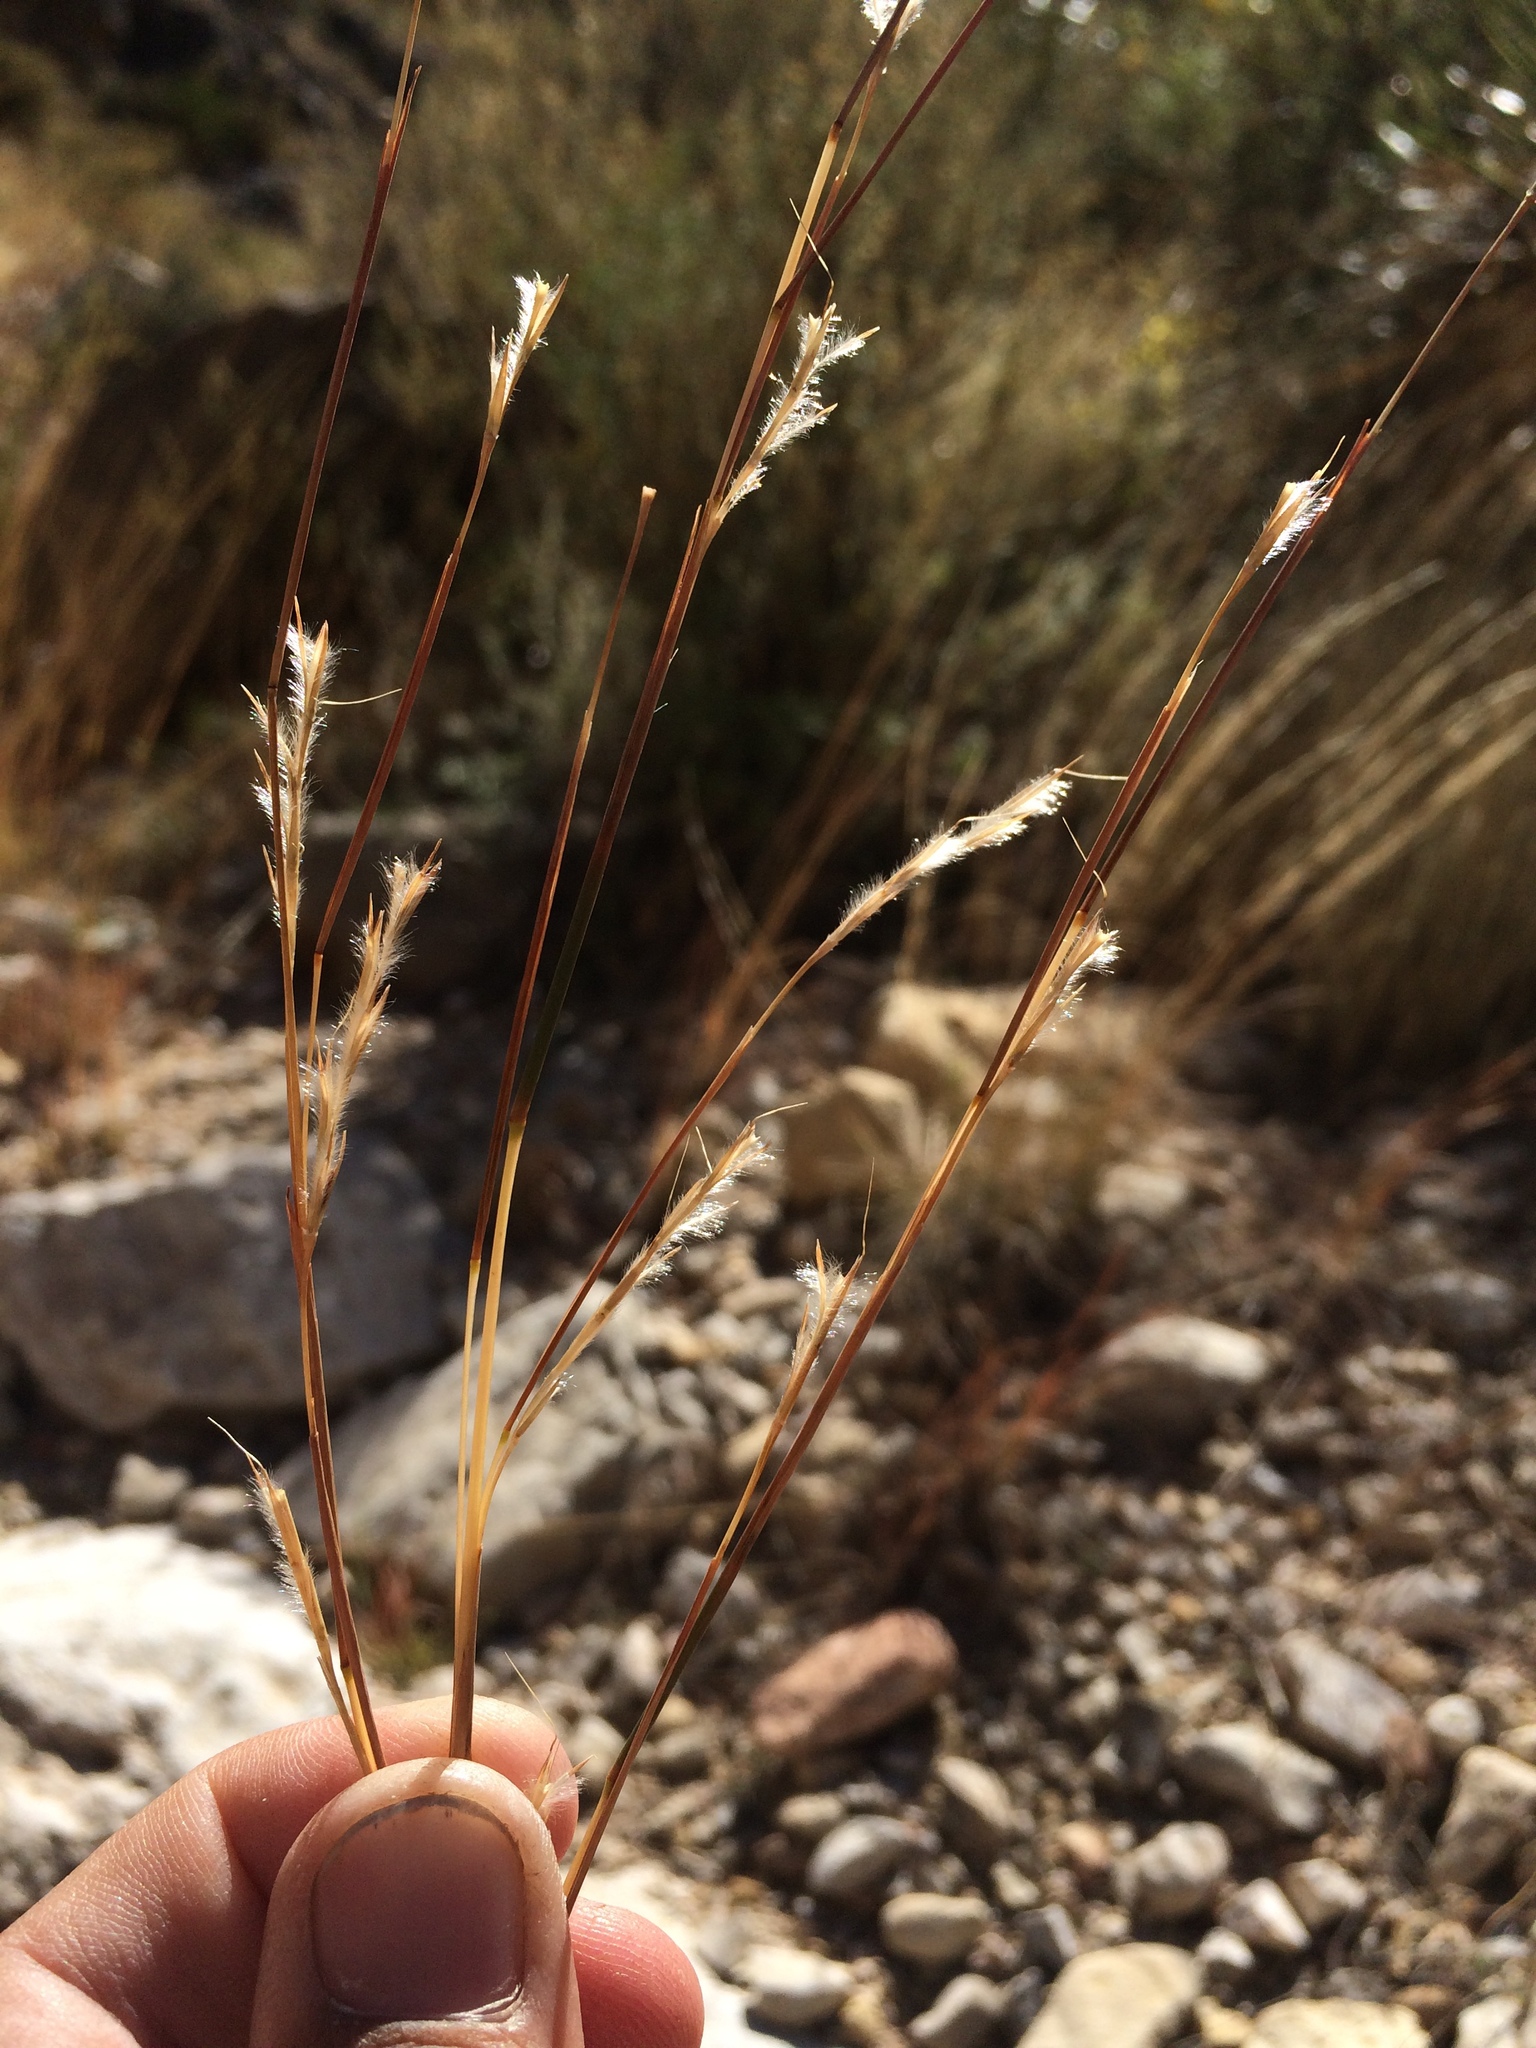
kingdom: Plantae
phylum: Tracheophyta
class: Liliopsida
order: Poales
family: Poaceae
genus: Schizachyrium
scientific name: Schizachyrium scoparium
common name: Little bluestem
